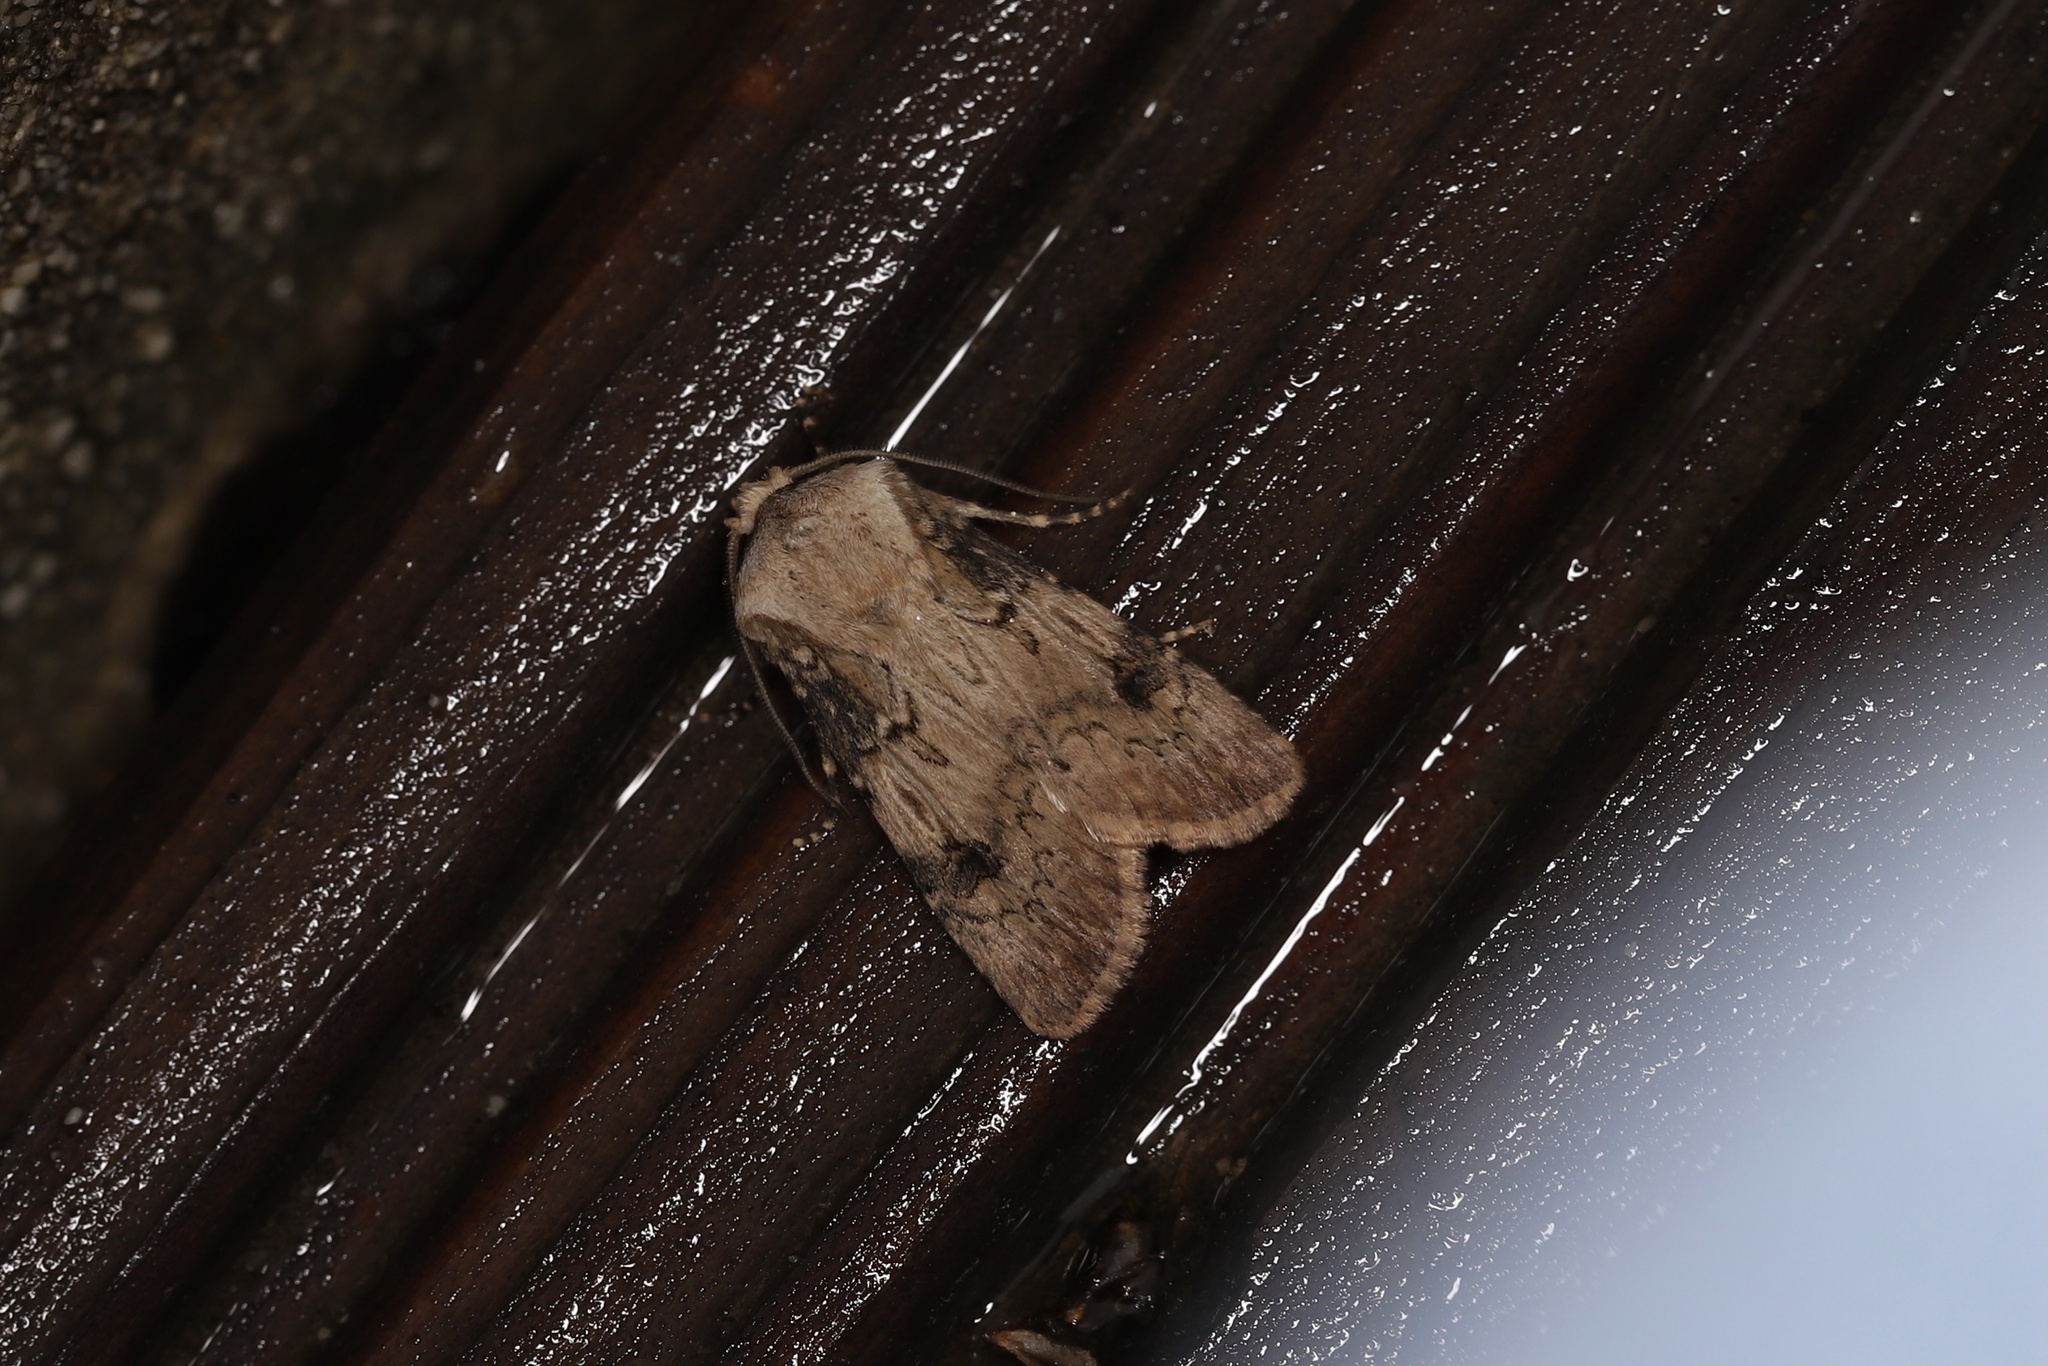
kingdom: Animalia
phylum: Arthropoda
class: Insecta
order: Lepidoptera
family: Noctuidae
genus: Agrotis
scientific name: Agrotis puta
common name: Shuttle-shaped dart
